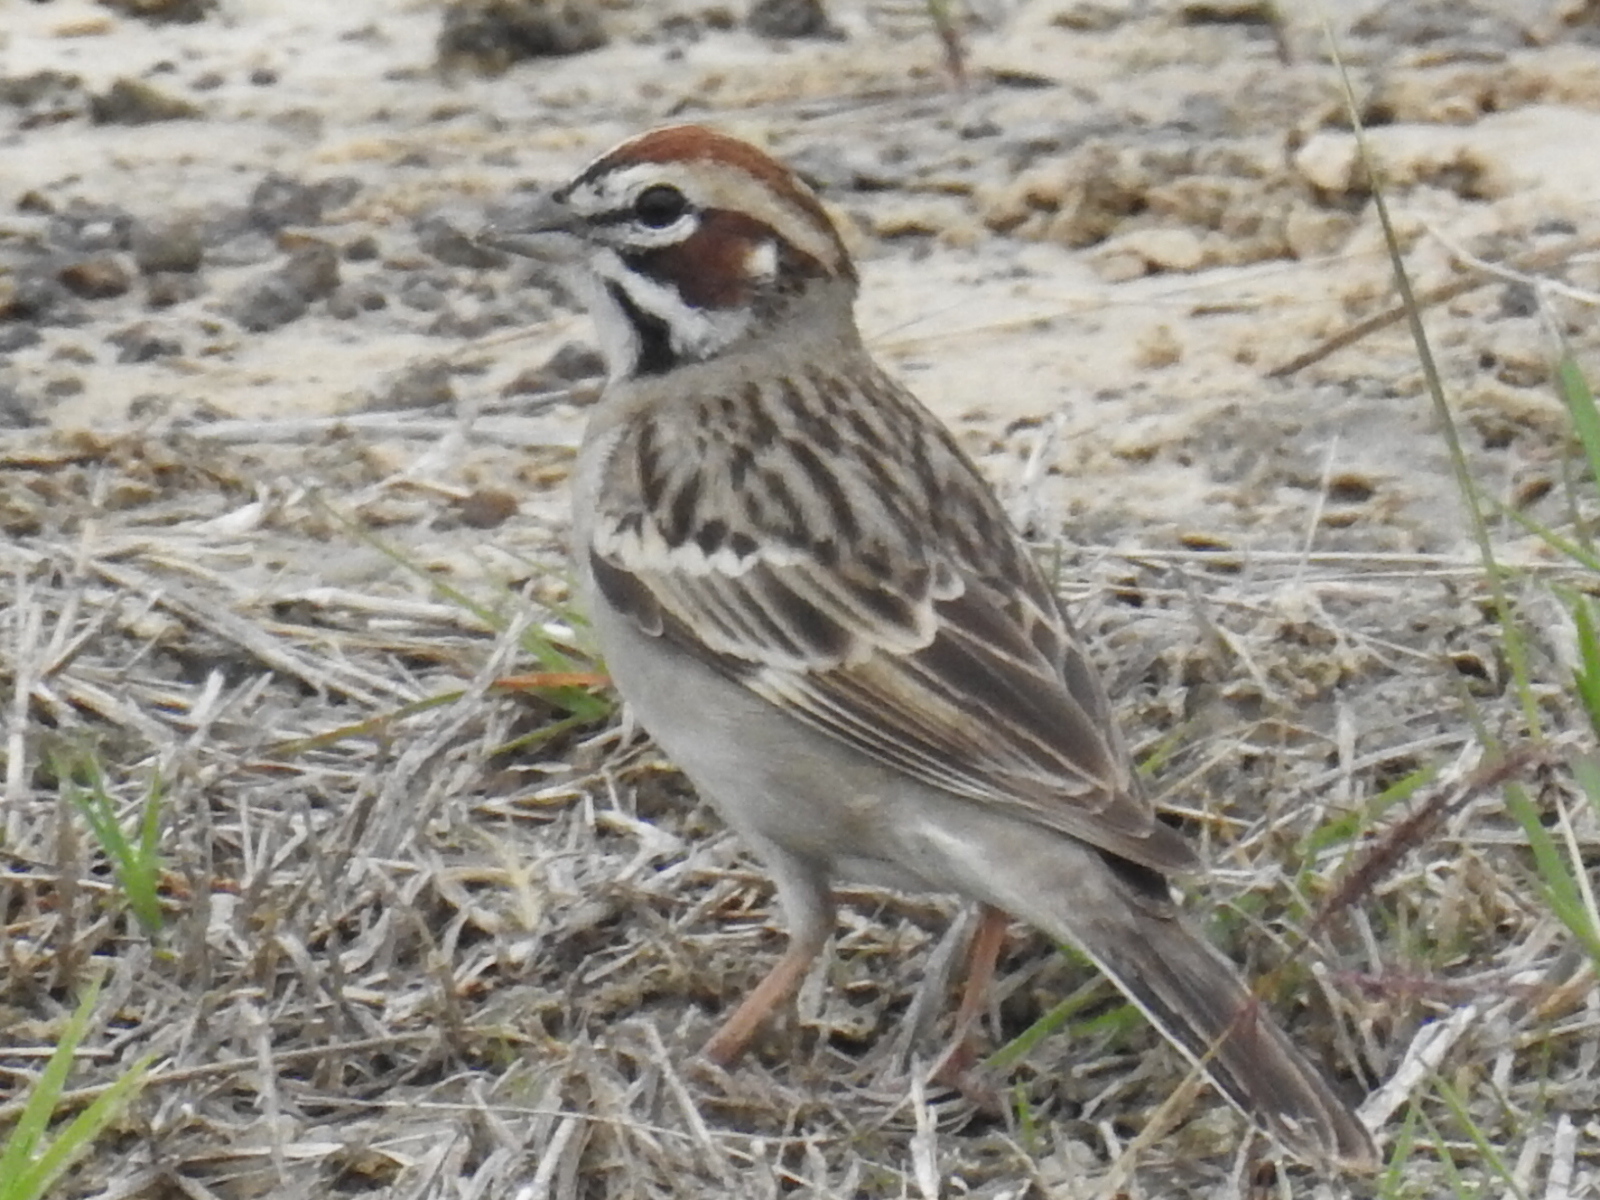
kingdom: Animalia
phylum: Chordata
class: Aves
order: Passeriformes
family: Passerellidae
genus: Chondestes
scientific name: Chondestes grammacus
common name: Lark sparrow
